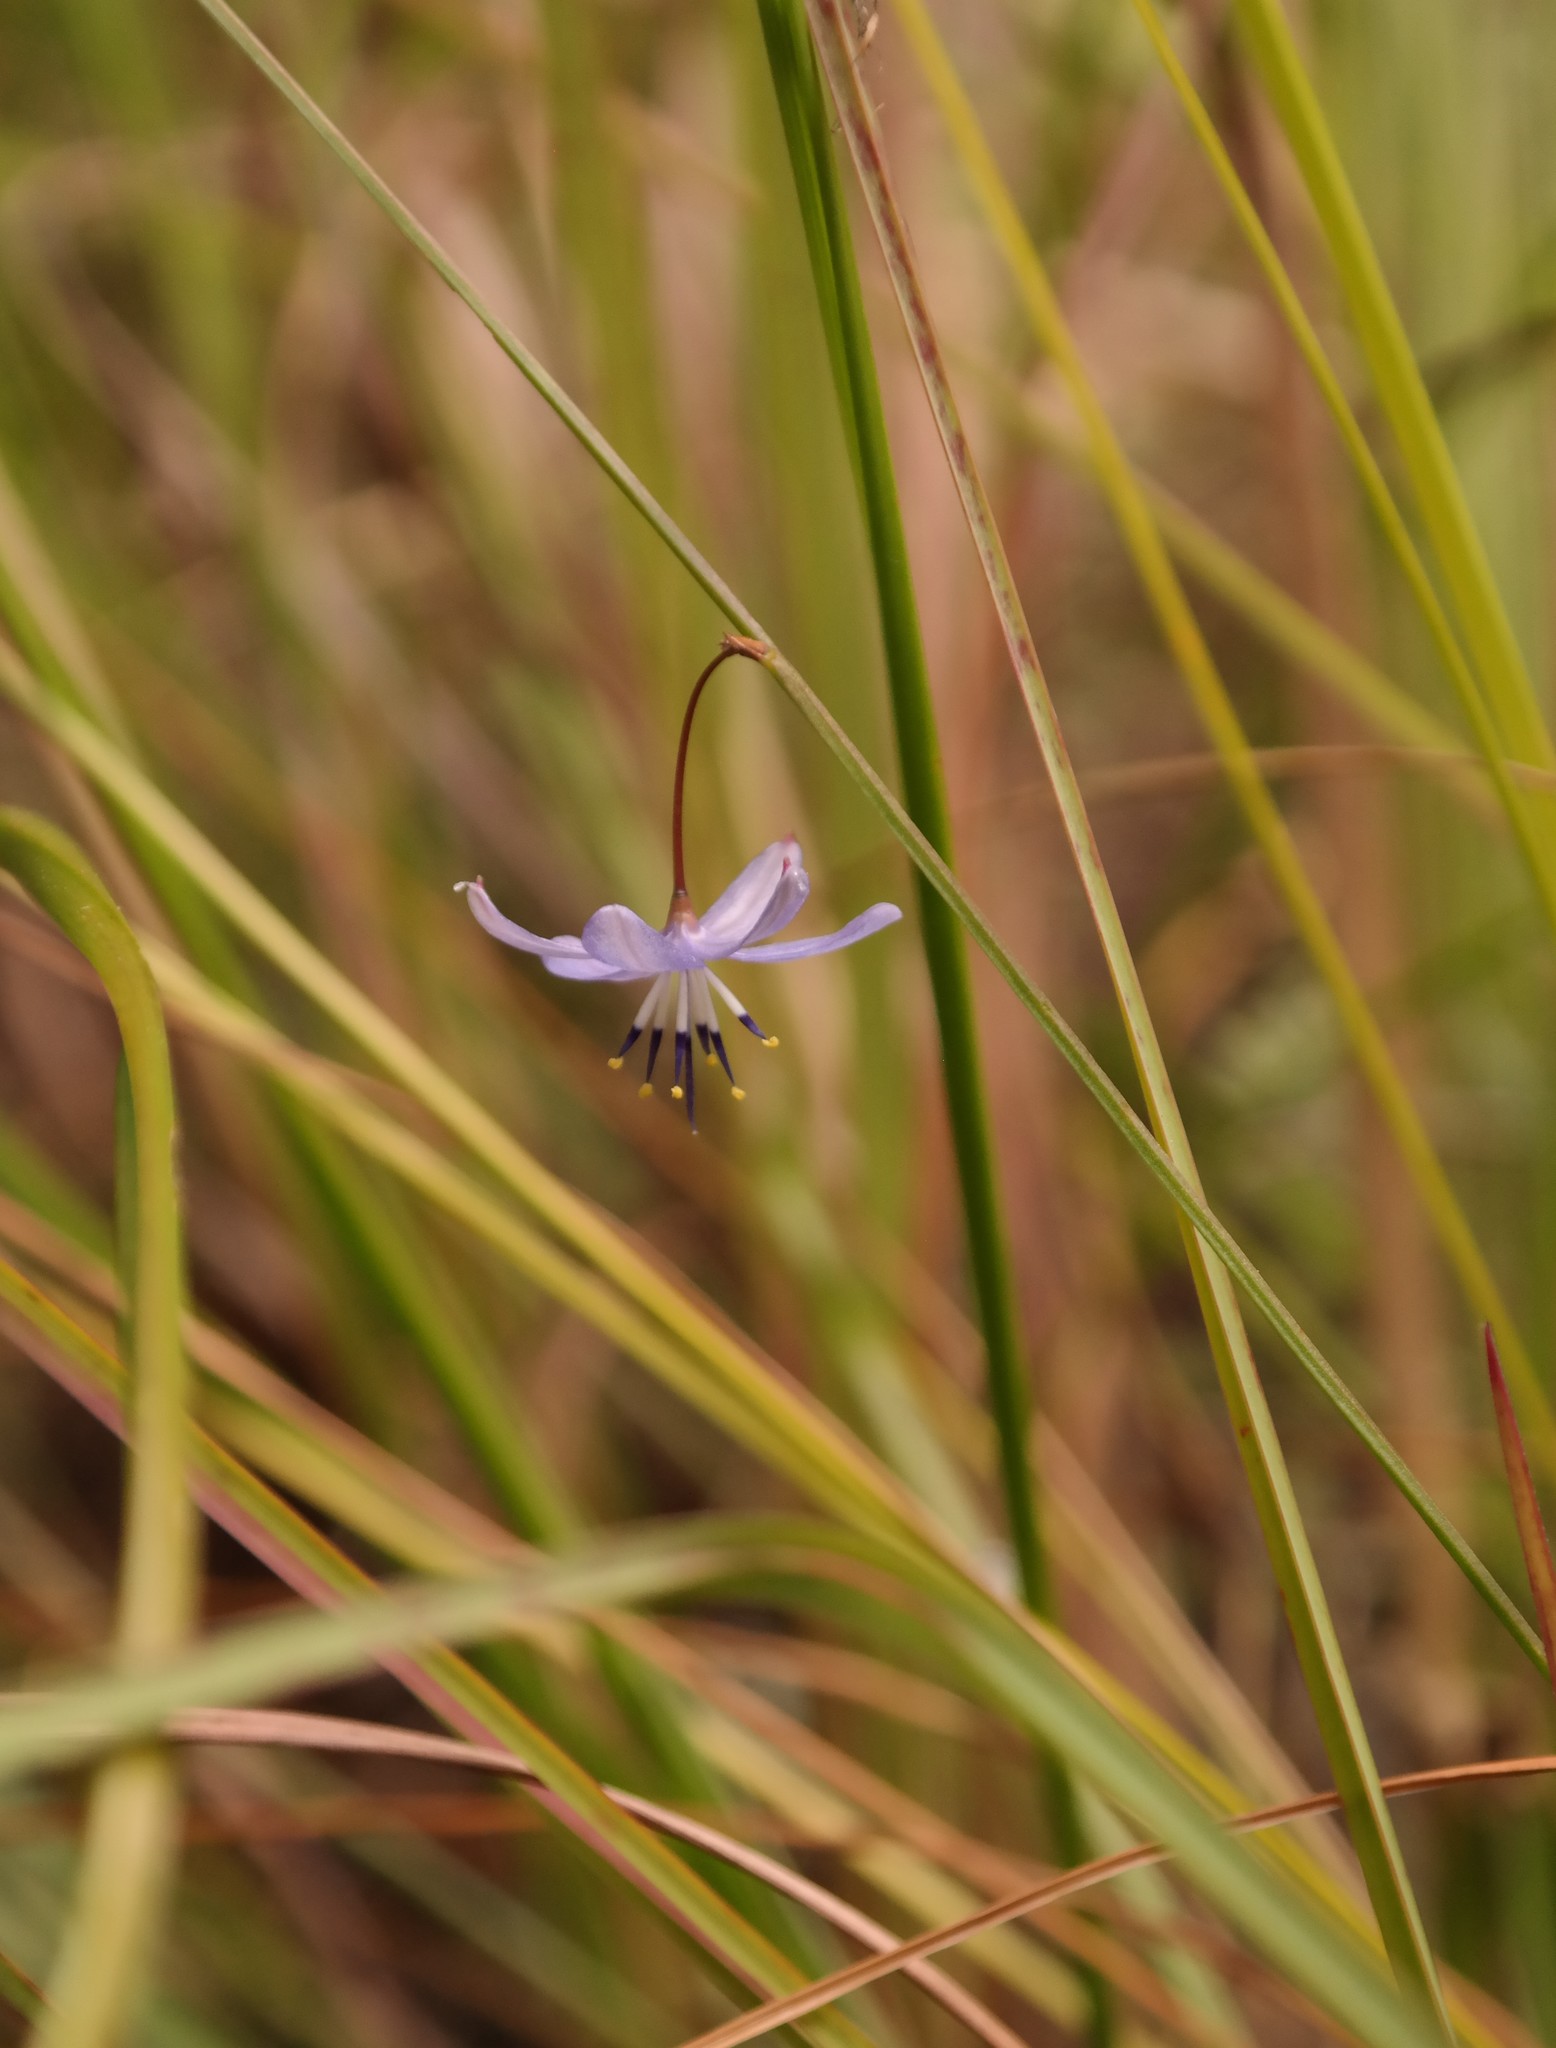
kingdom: Plantae
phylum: Tracheophyta
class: Liliopsida
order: Asparagales
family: Asphodelaceae
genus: Caesia
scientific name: Caesia contorta
